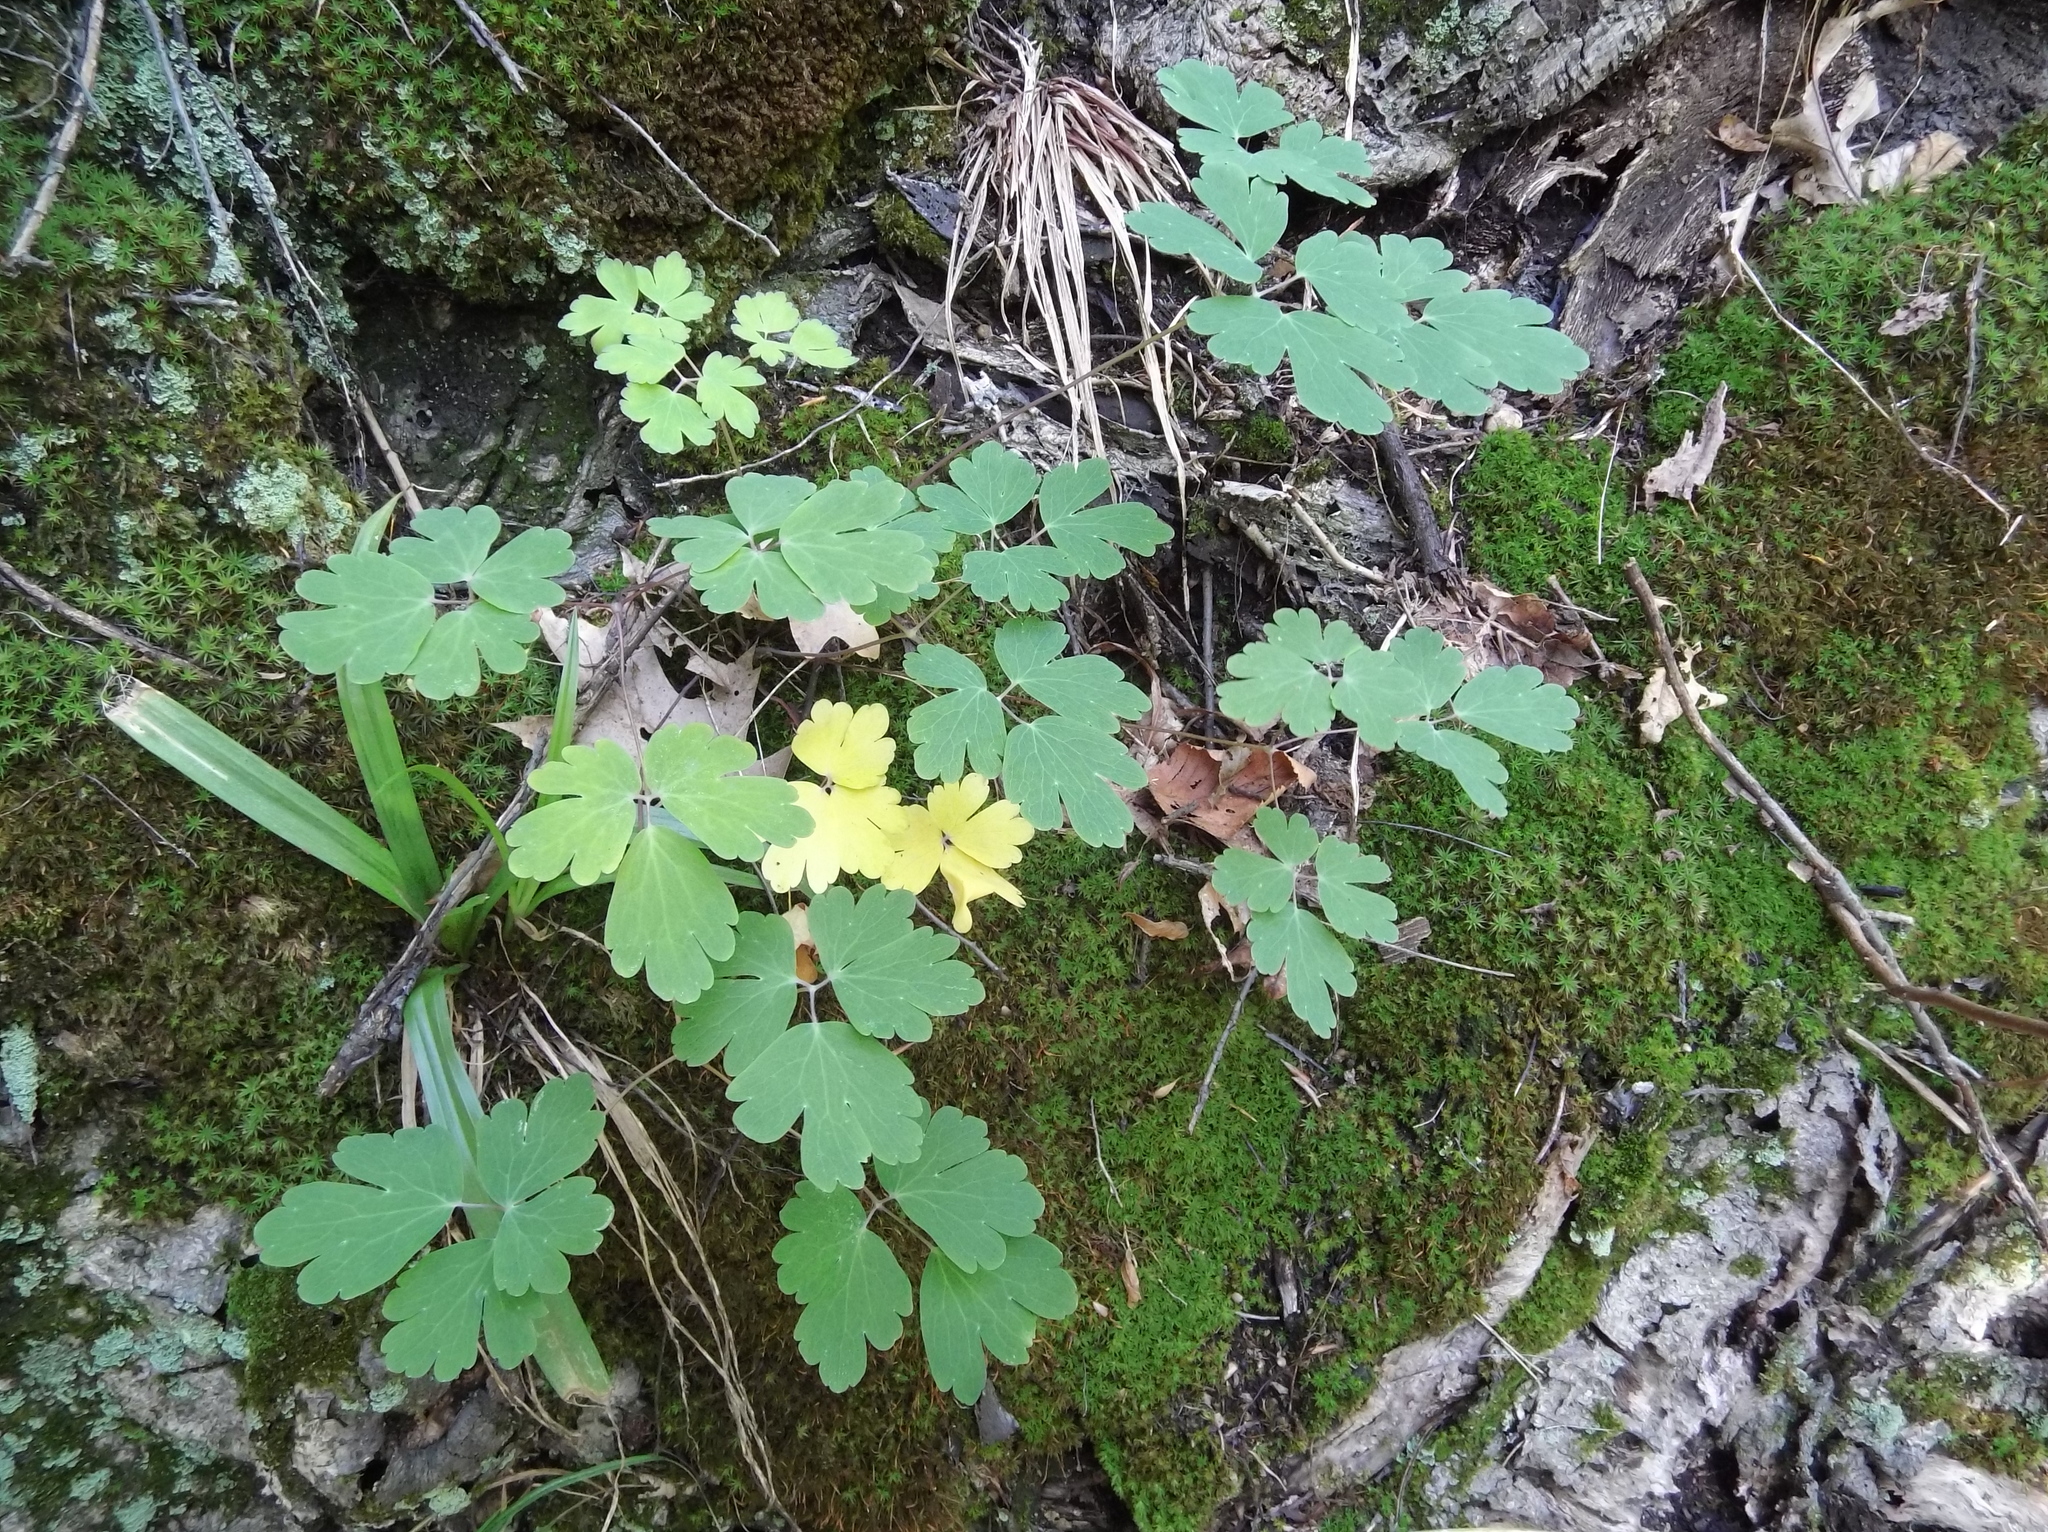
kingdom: Plantae
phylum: Tracheophyta
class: Magnoliopsida
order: Ranunculales
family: Ranunculaceae
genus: Aquilegia
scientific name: Aquilegia canadensis
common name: American columbine
